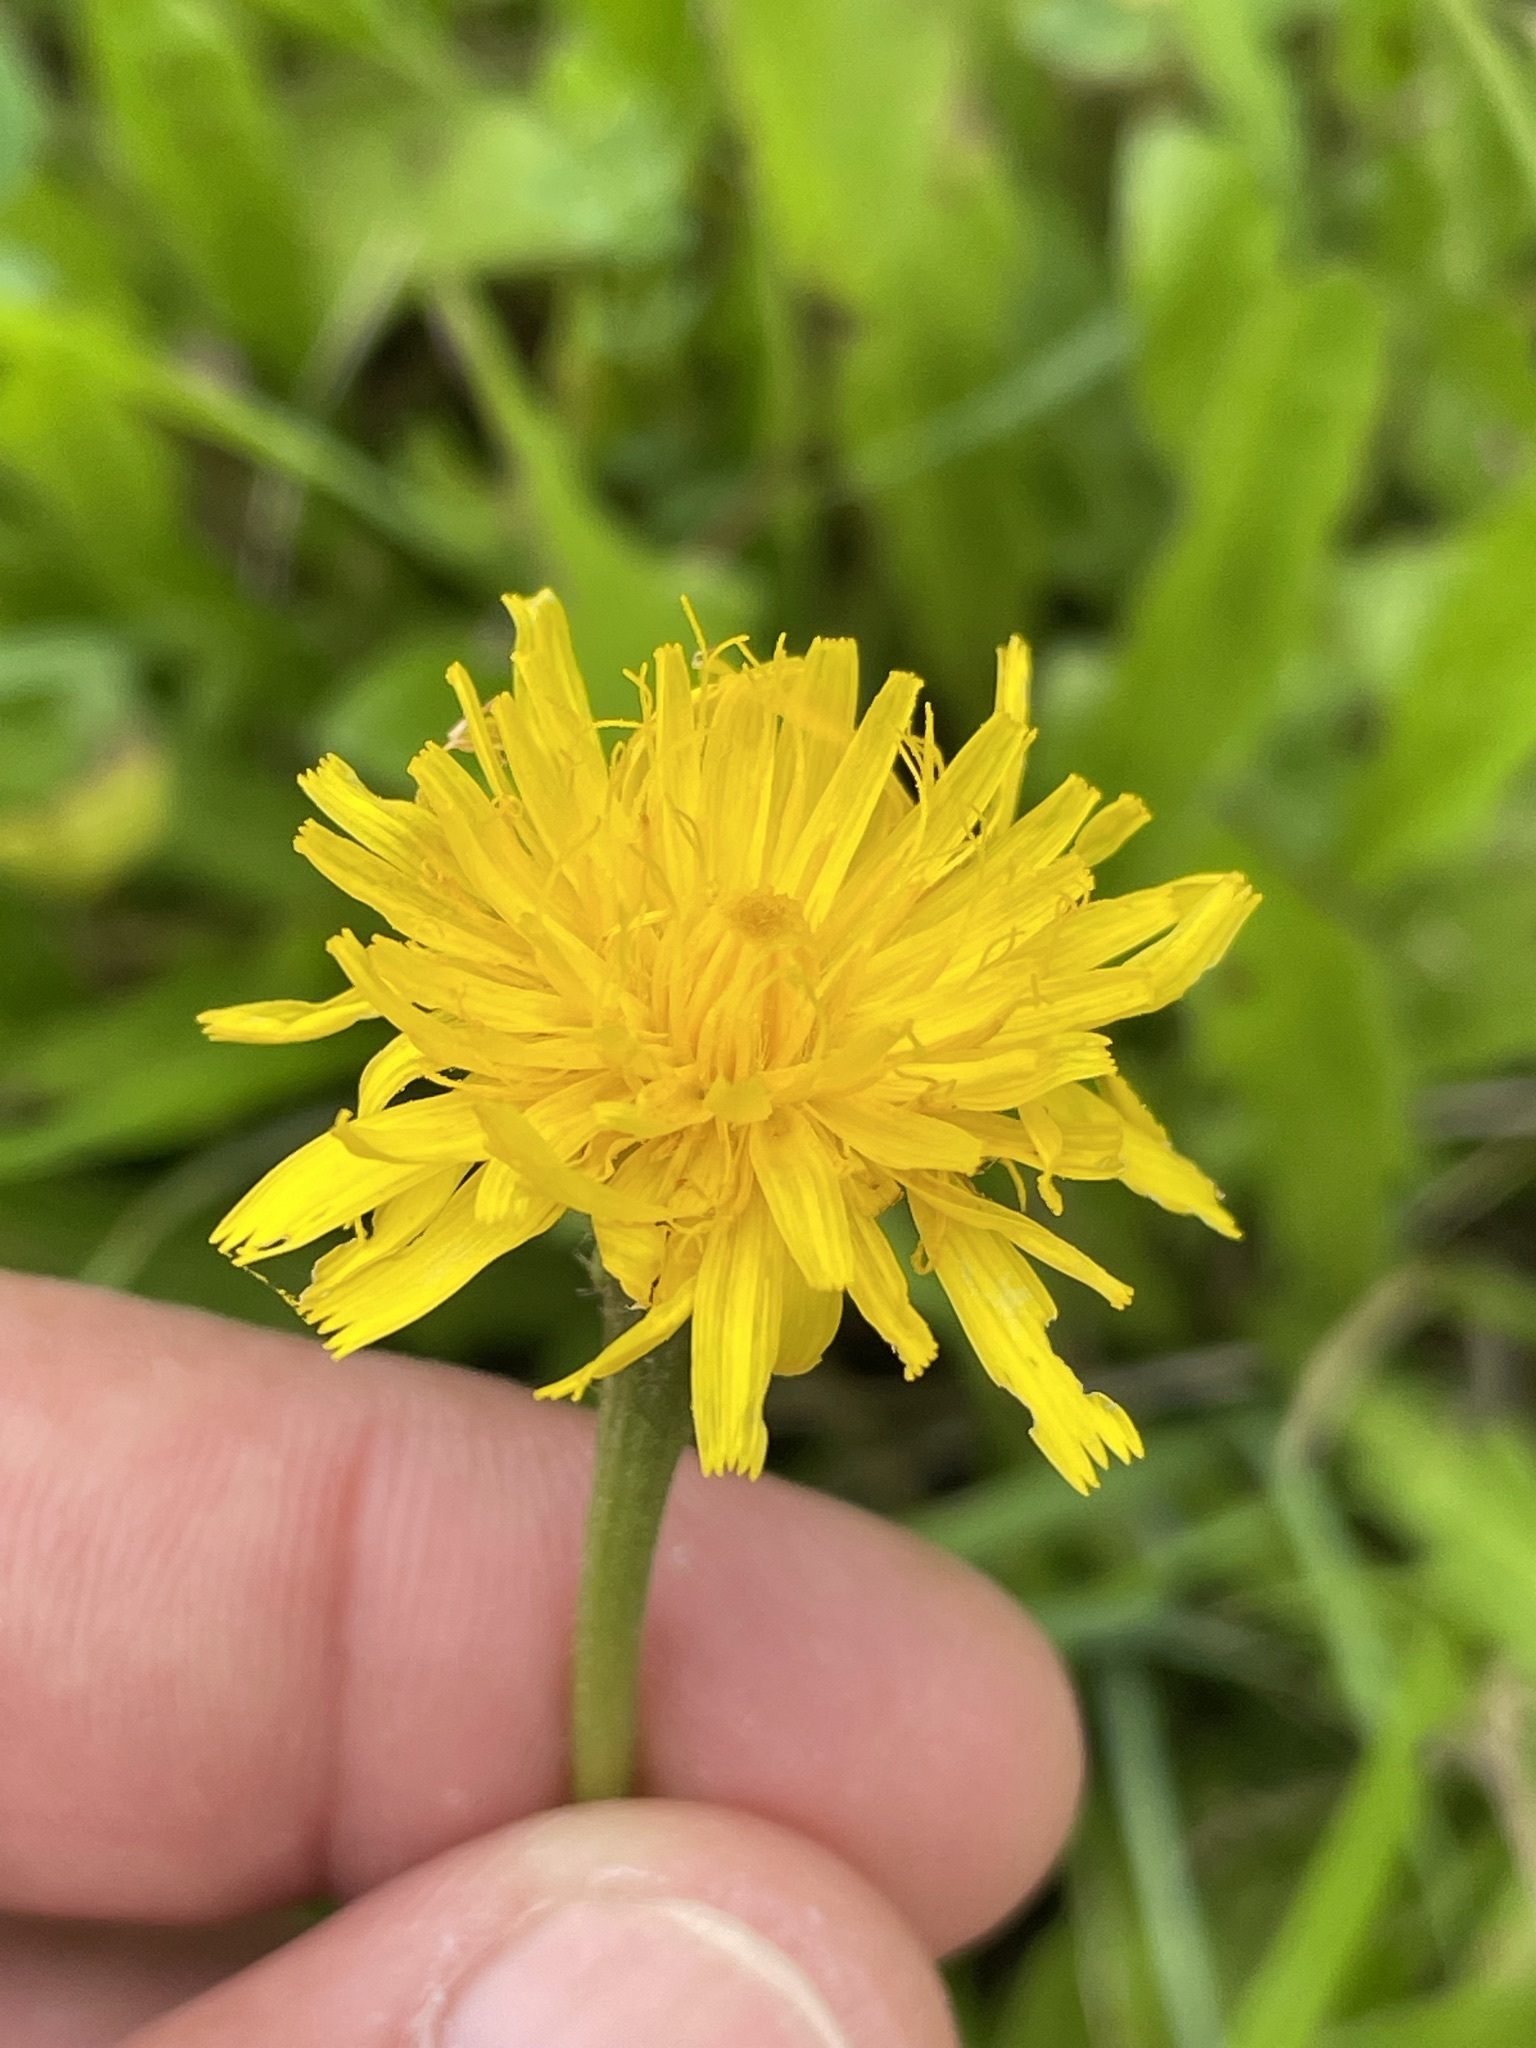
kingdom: Plantae
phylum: Tracheophyta
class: Magnoliopsida
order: Asterales
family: Asteraceae
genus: Leontodon
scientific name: Leontodon hispidus
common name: Rough hawkbit
